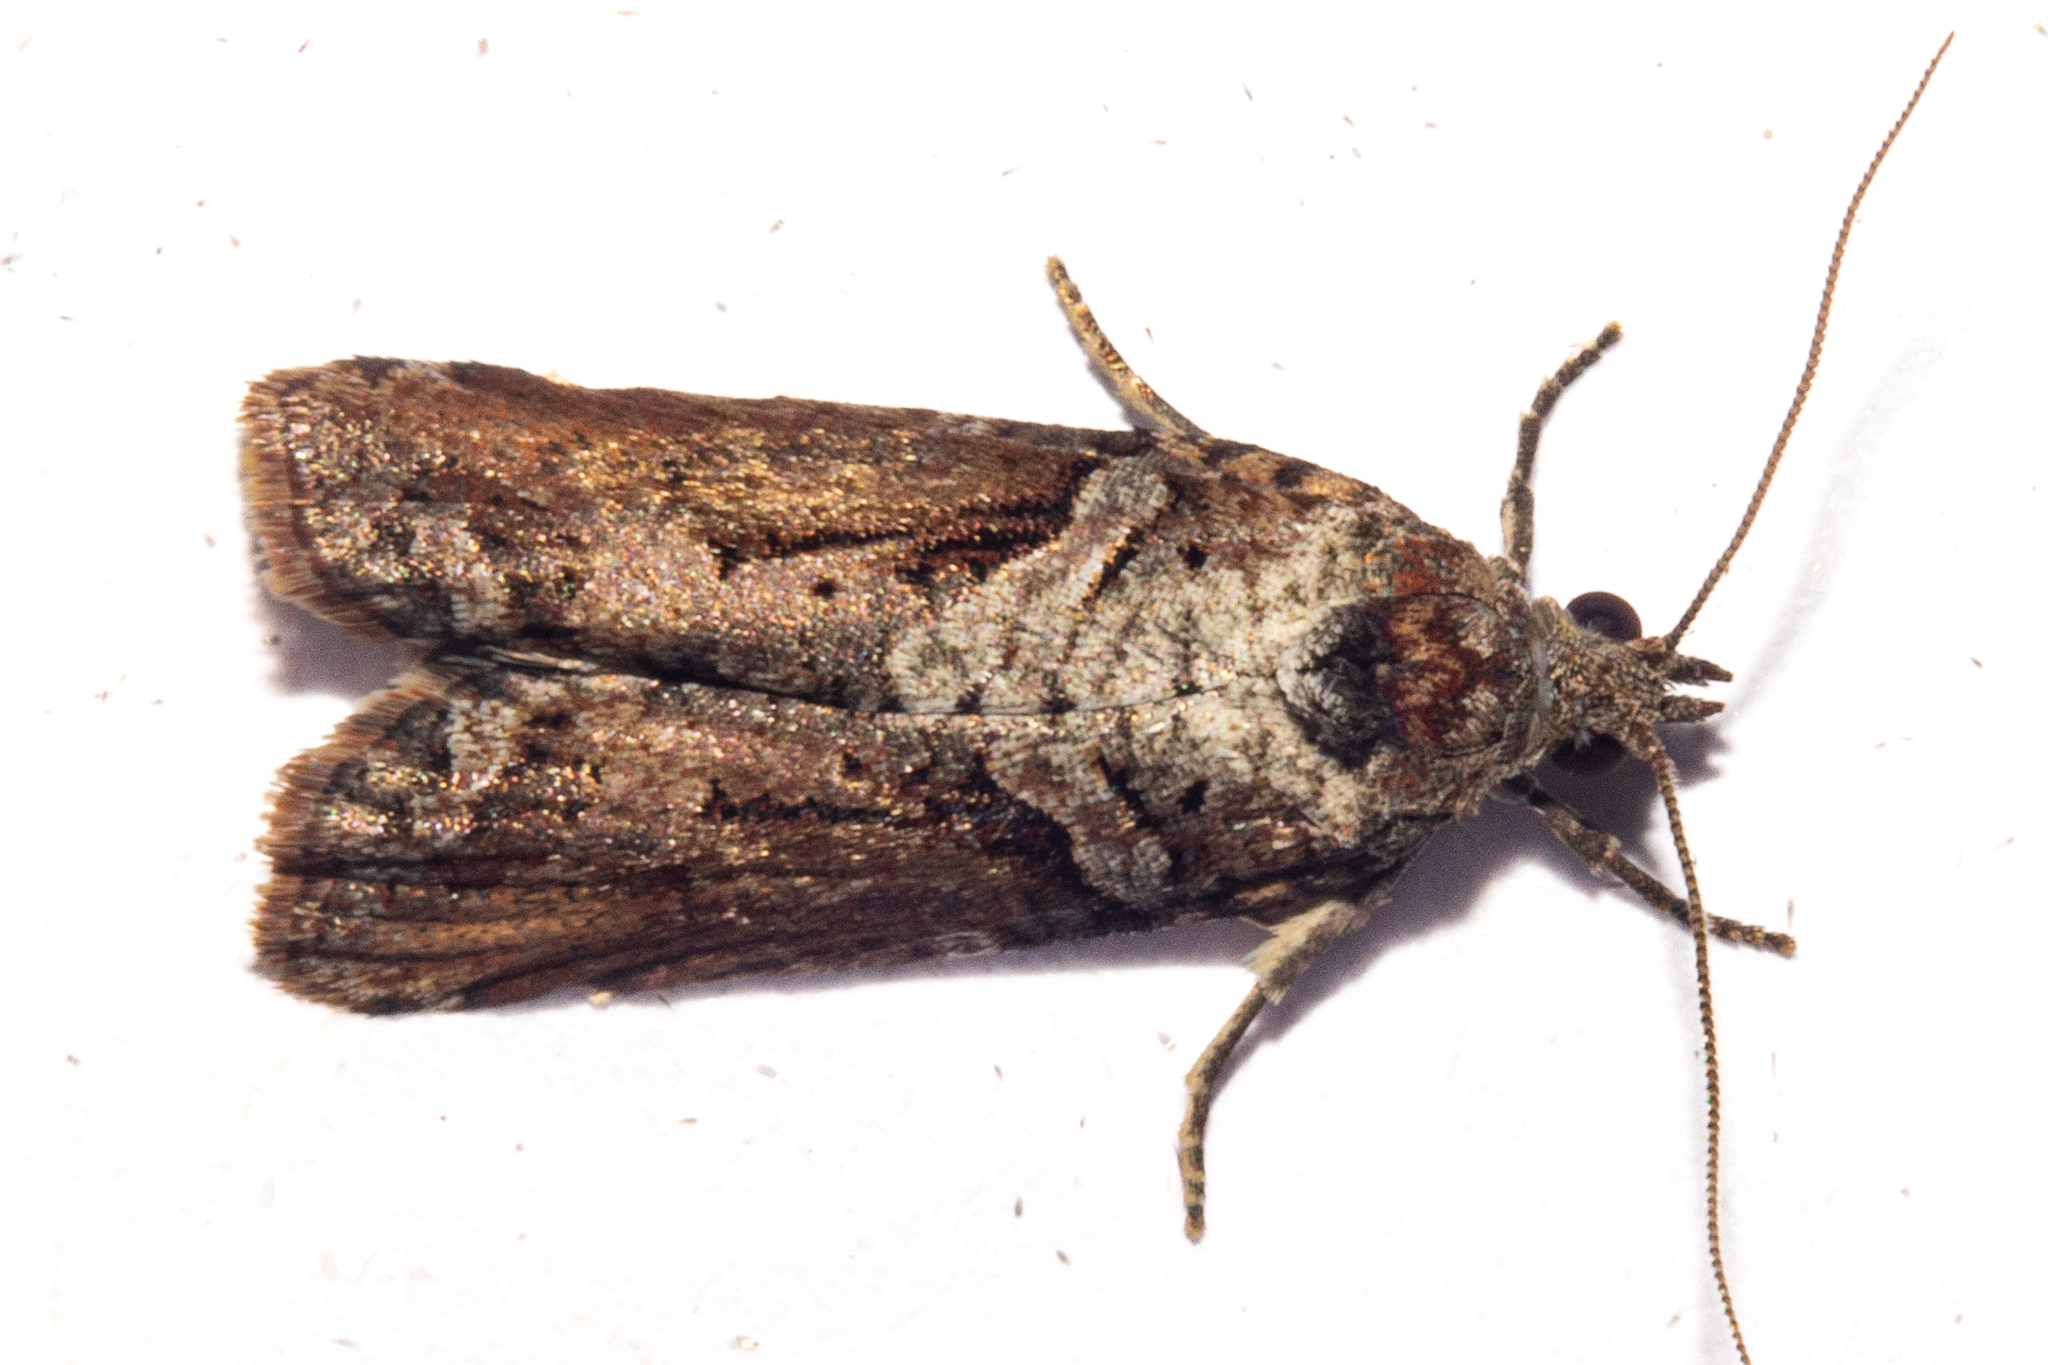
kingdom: Animalia
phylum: Arthropoda
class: Insecta
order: Lepidoptera
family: Tortricidae
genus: Harmologa
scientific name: Harmologa scoliastis
